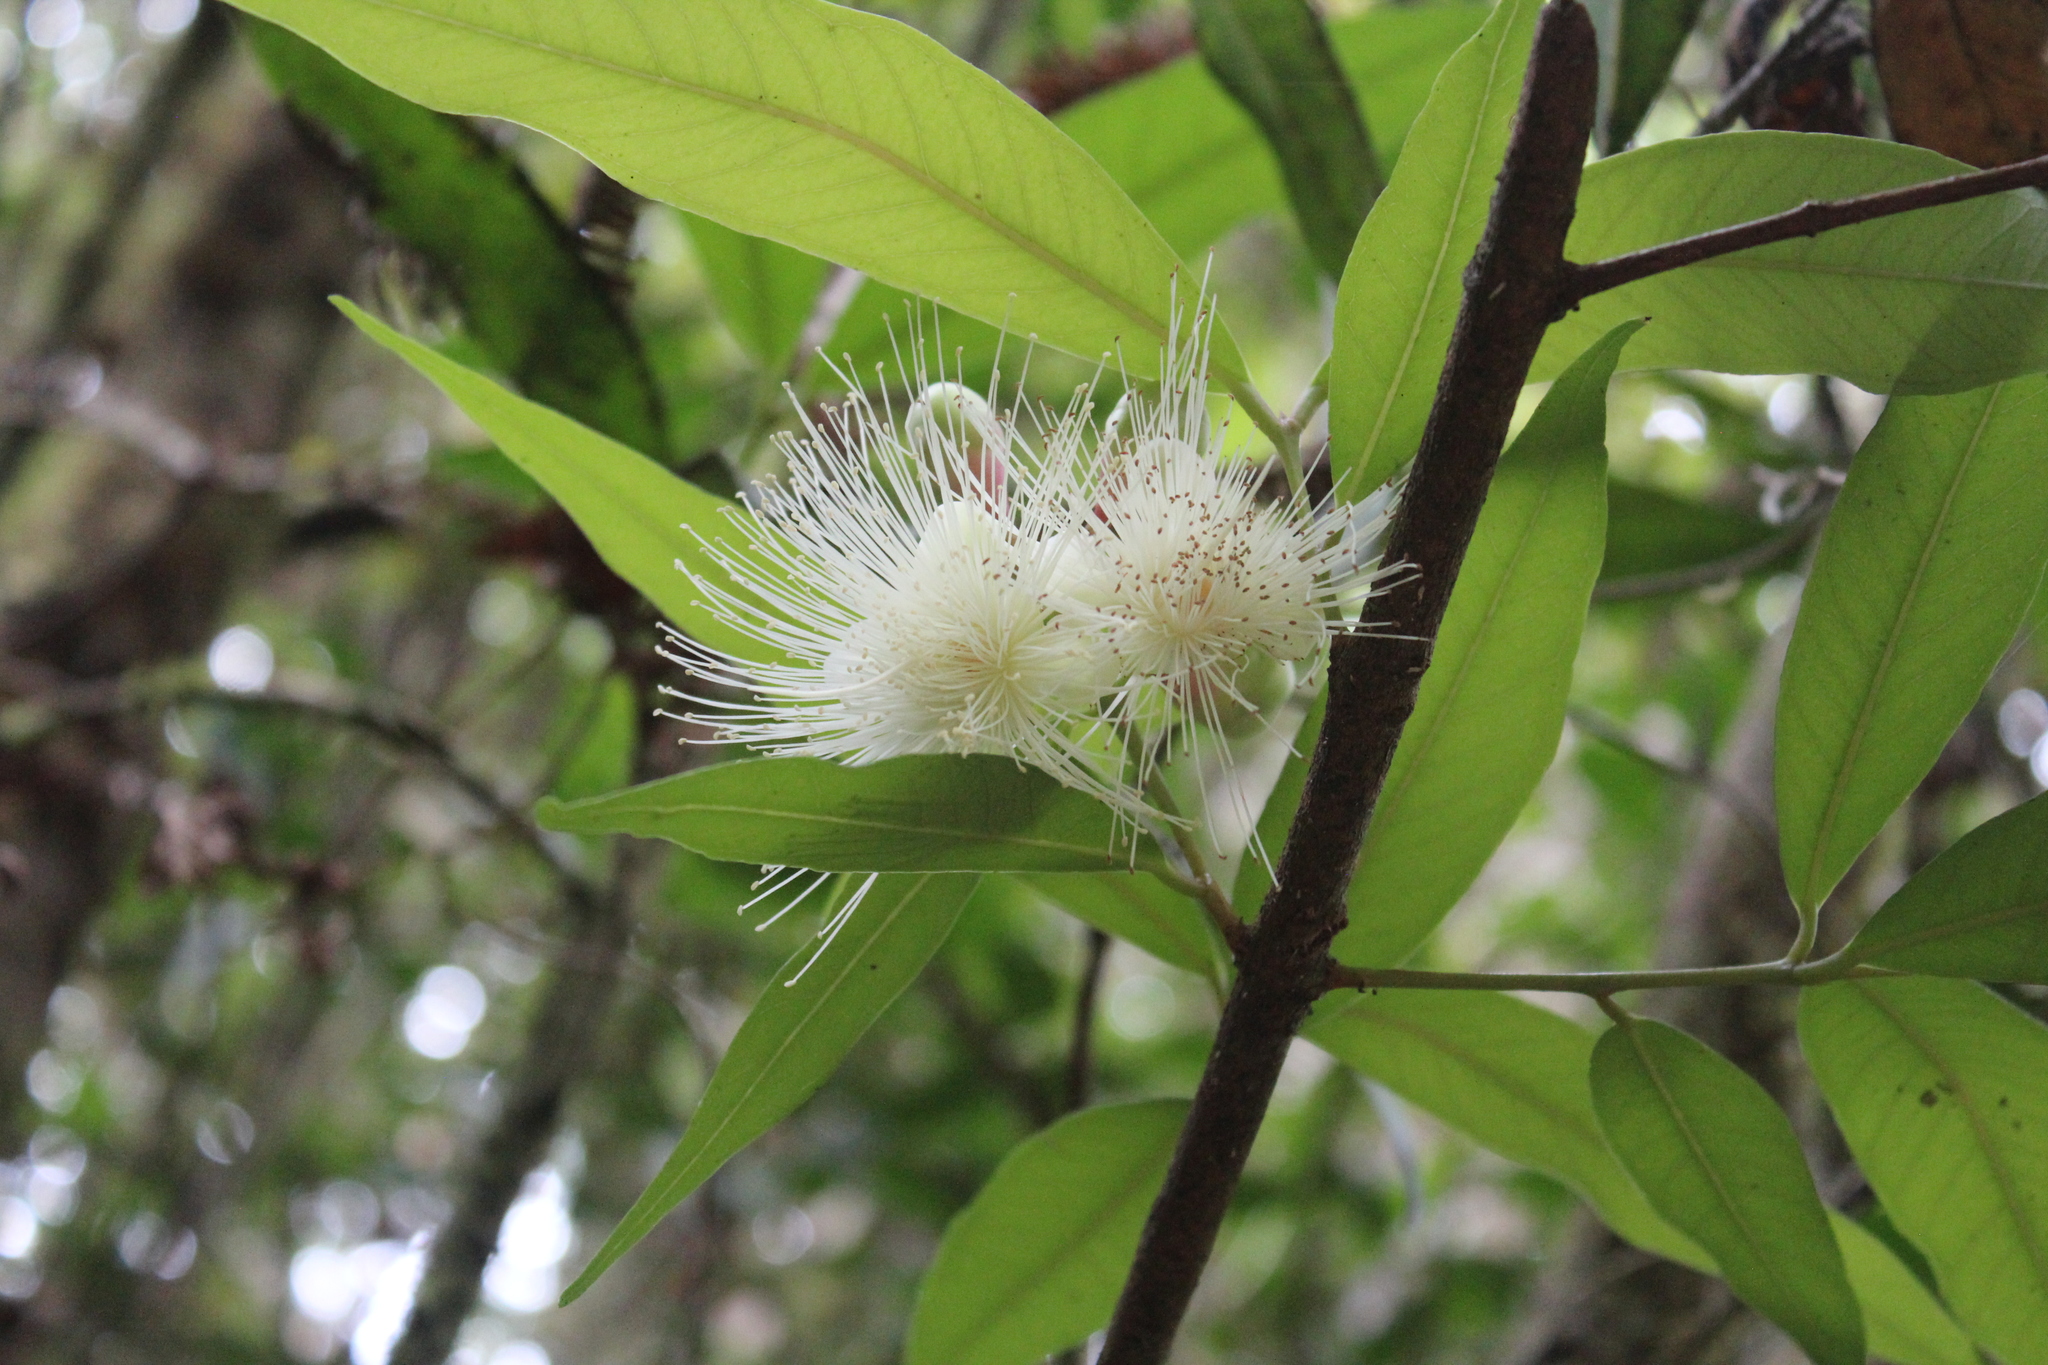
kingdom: Plantae
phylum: Tracheophyta
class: Magnoliopsida
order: Myrtales
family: Myrtaceae
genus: Syzygium
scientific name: Syzygium jambos
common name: Malabar plum
